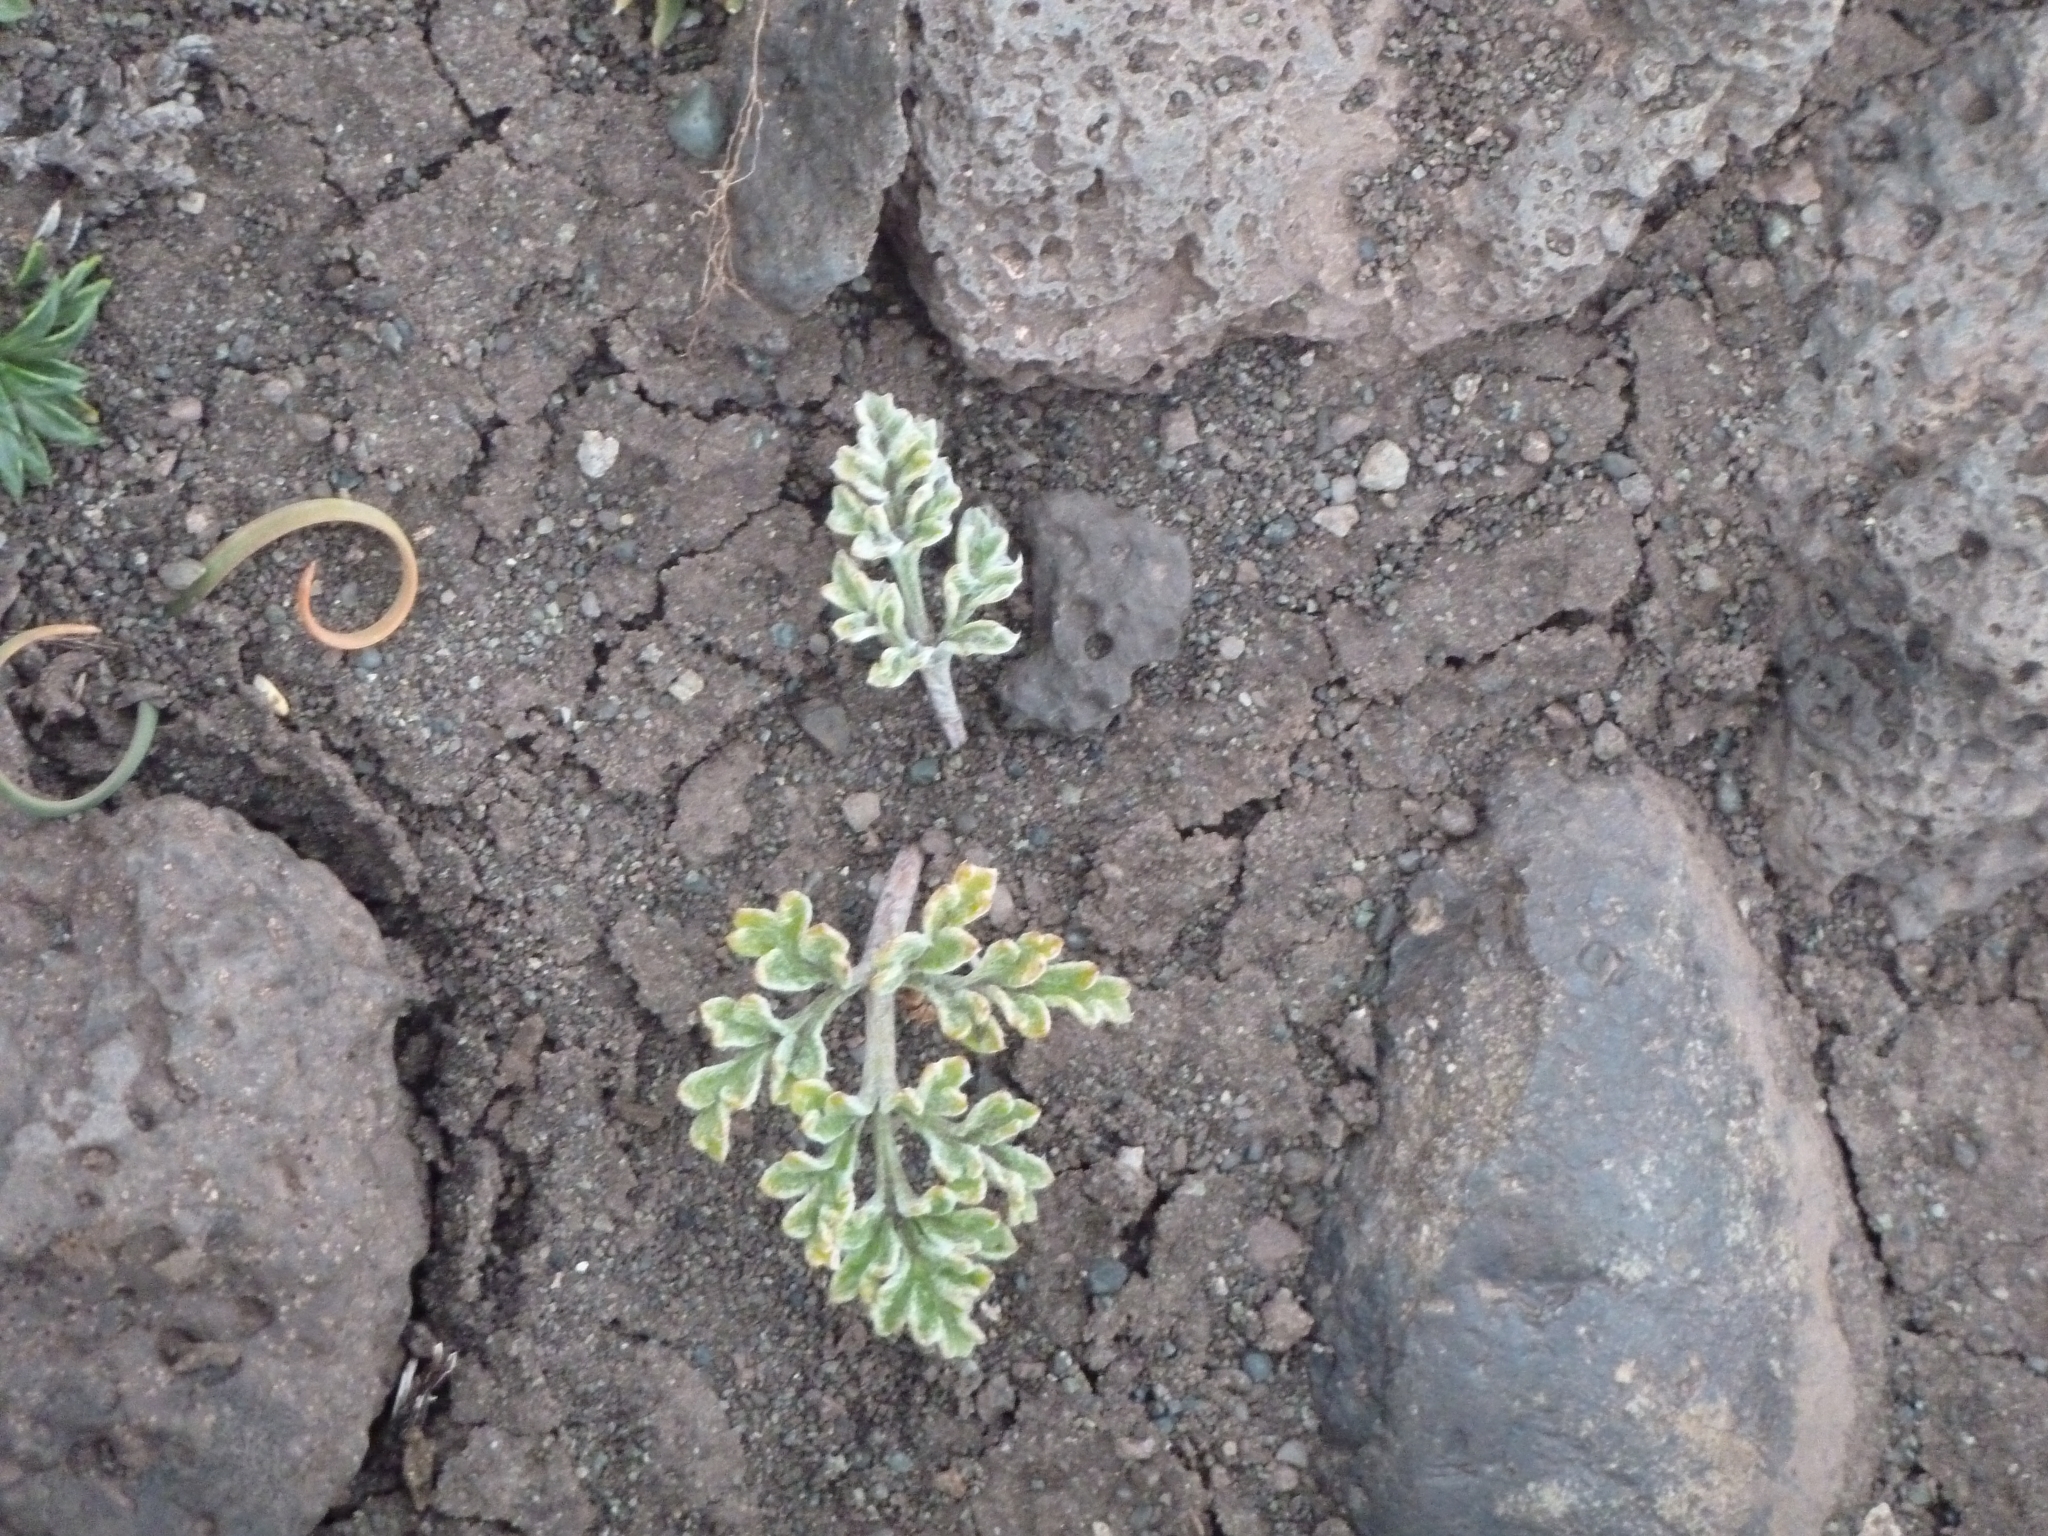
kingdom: Plantae
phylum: Tracheophyta
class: Magnoliopsida
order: Ranunculales
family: Ranunculaceae
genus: Hamadryas
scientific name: Hamadryas delfinii
